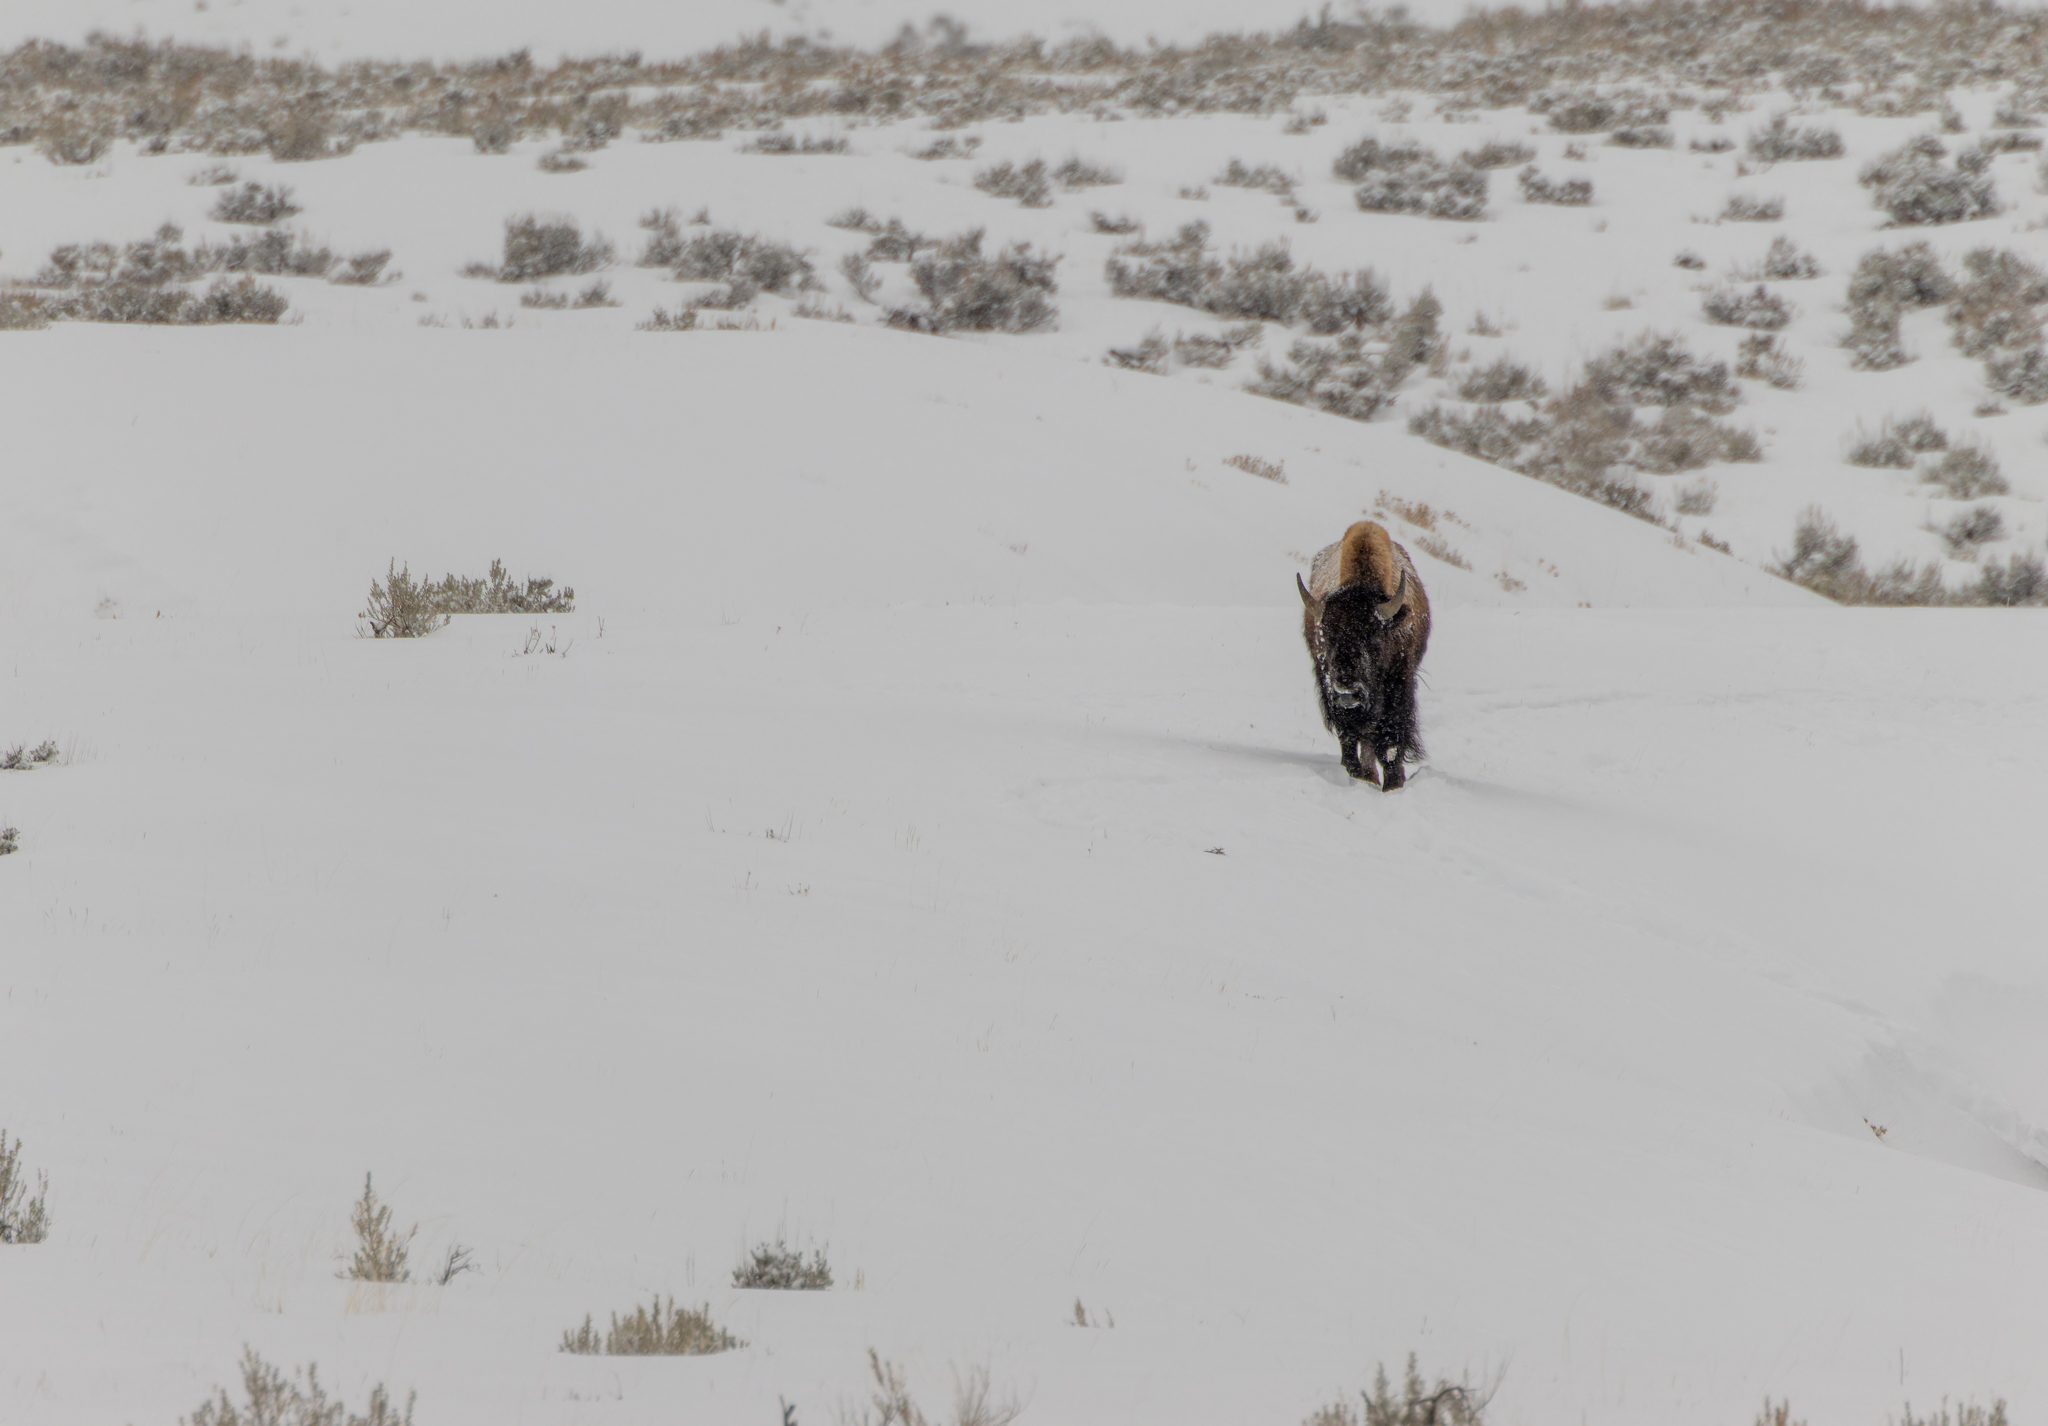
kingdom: Animalia
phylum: Chordata
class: Mammalia
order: Artiodactyla
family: Bovidae
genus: Bison
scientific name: Bison bison
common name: American bison
